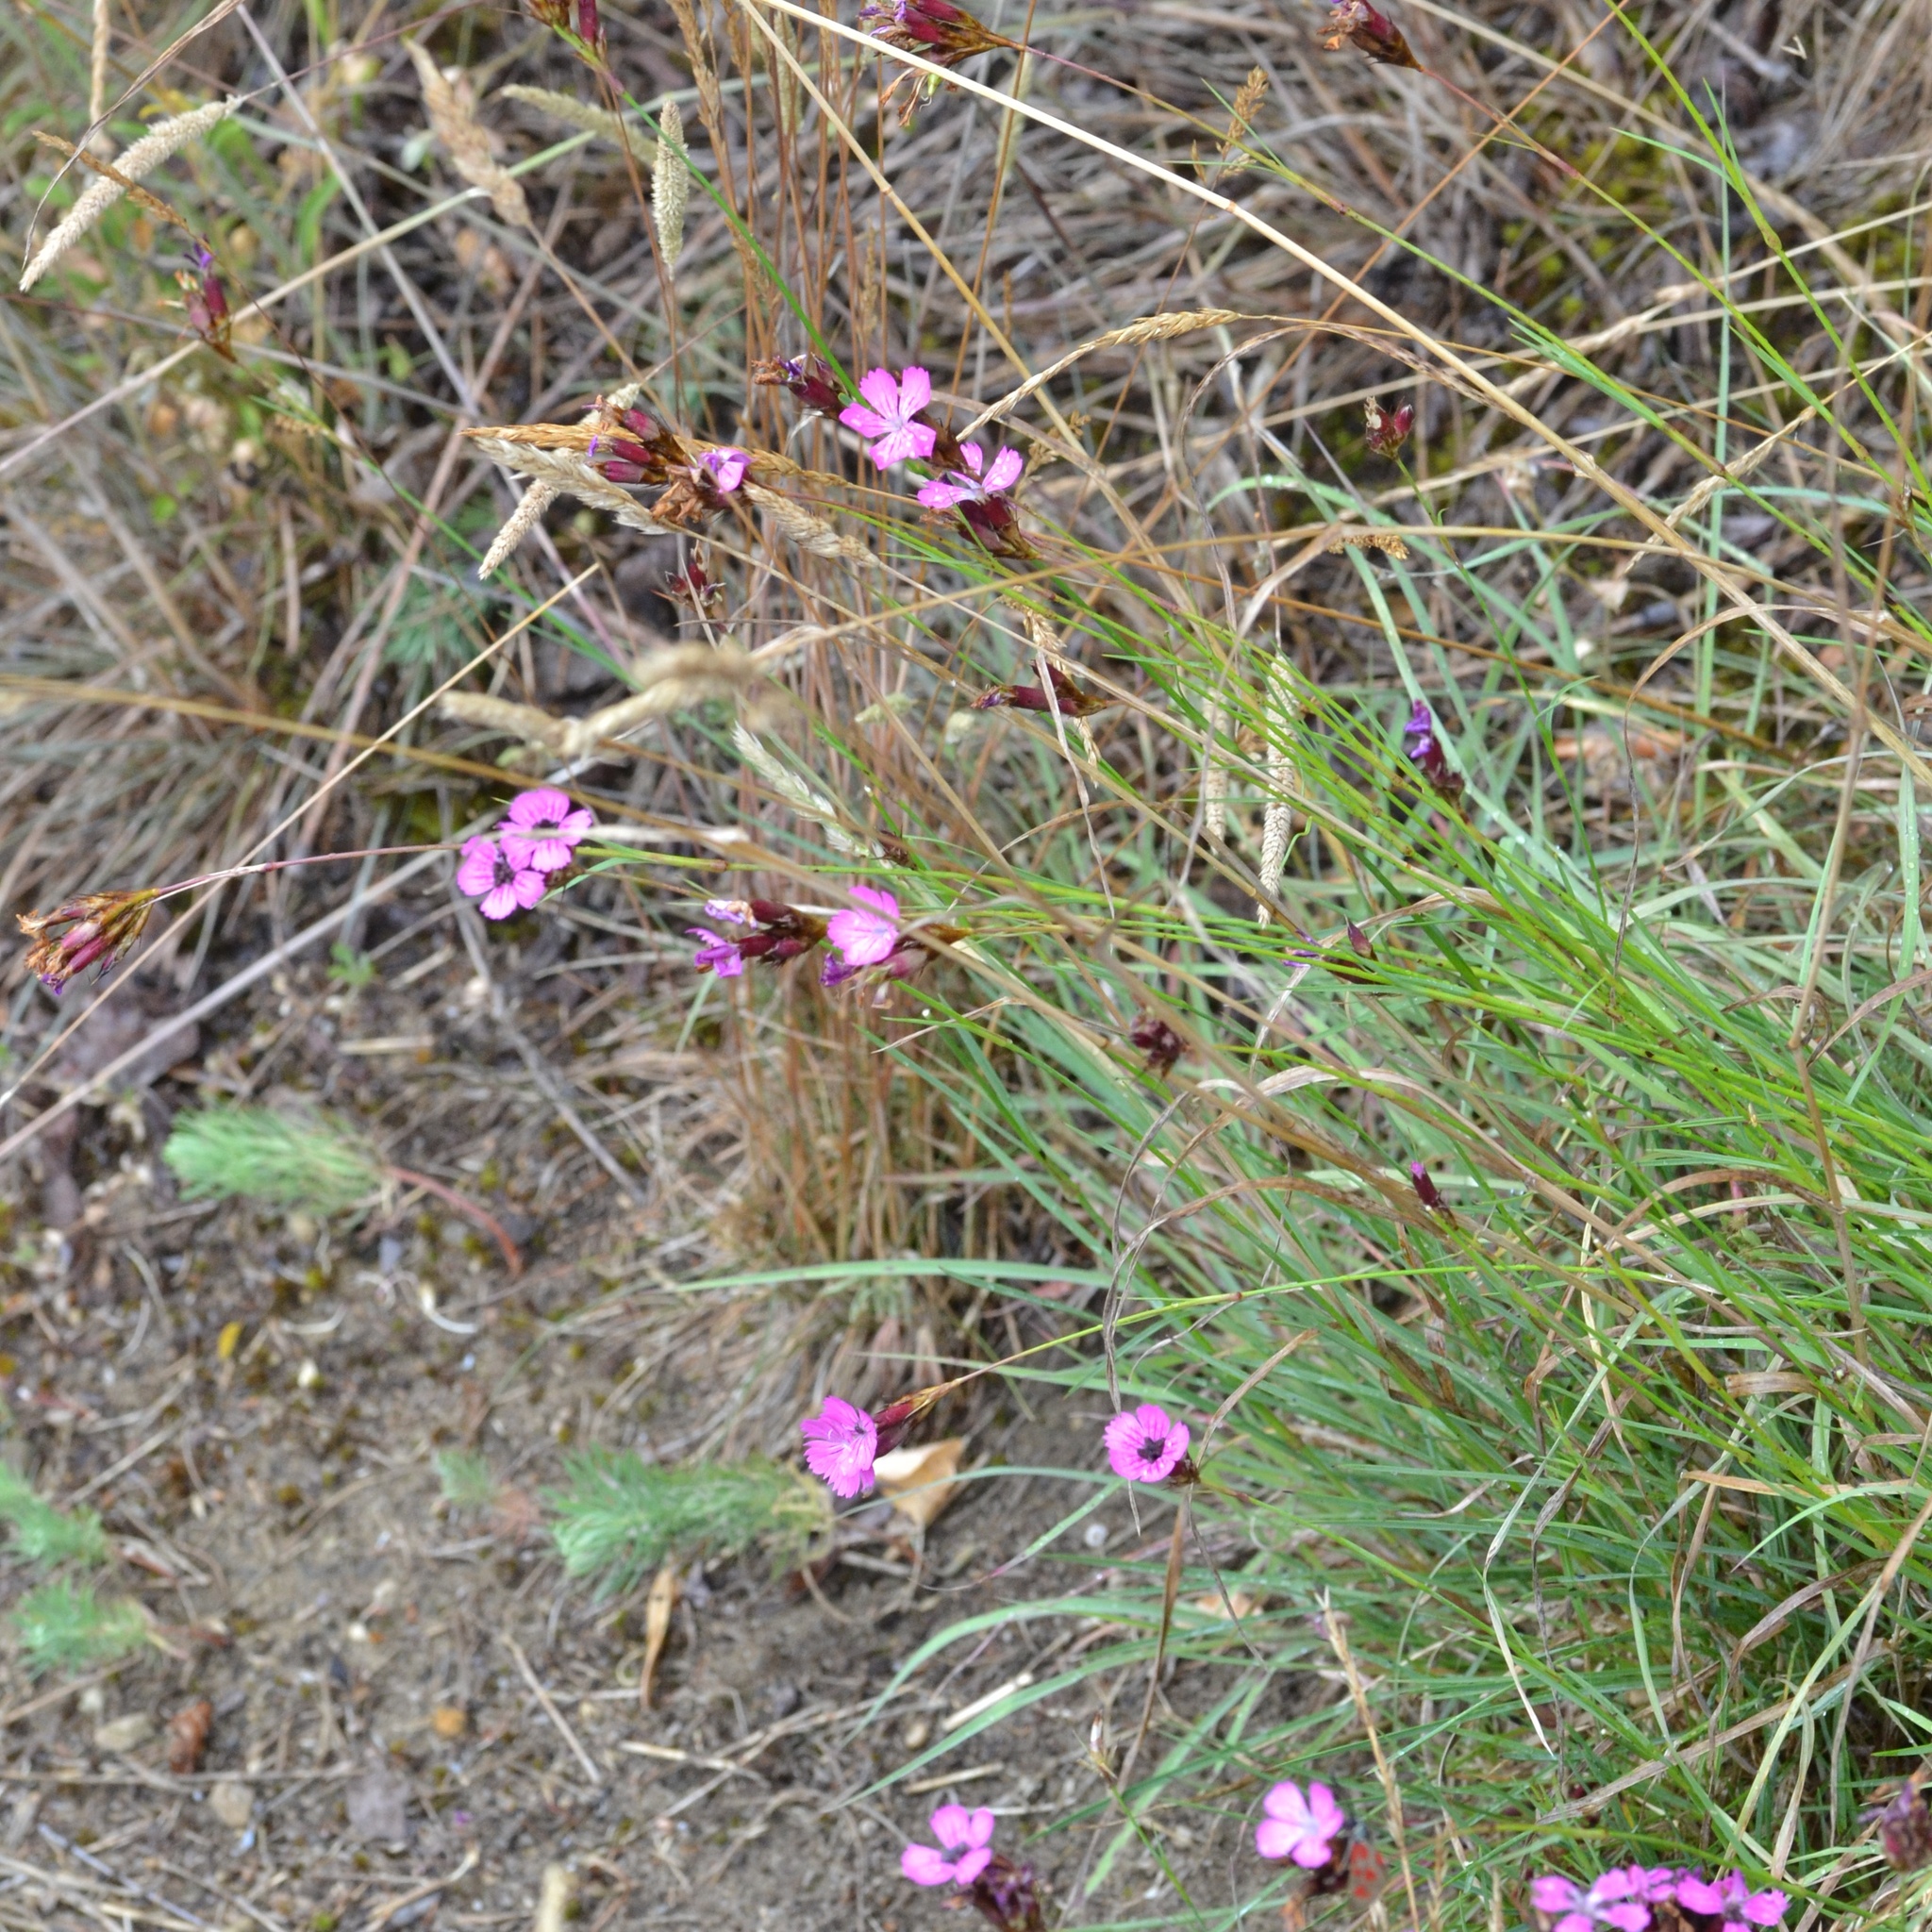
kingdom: Plantae
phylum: Tracheophyta
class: Magnoliopsida
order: Caryophyllales
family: Caryophyllaceae
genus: Dianthus
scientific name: Dianthus carthusianorum
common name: Carthusian pink
